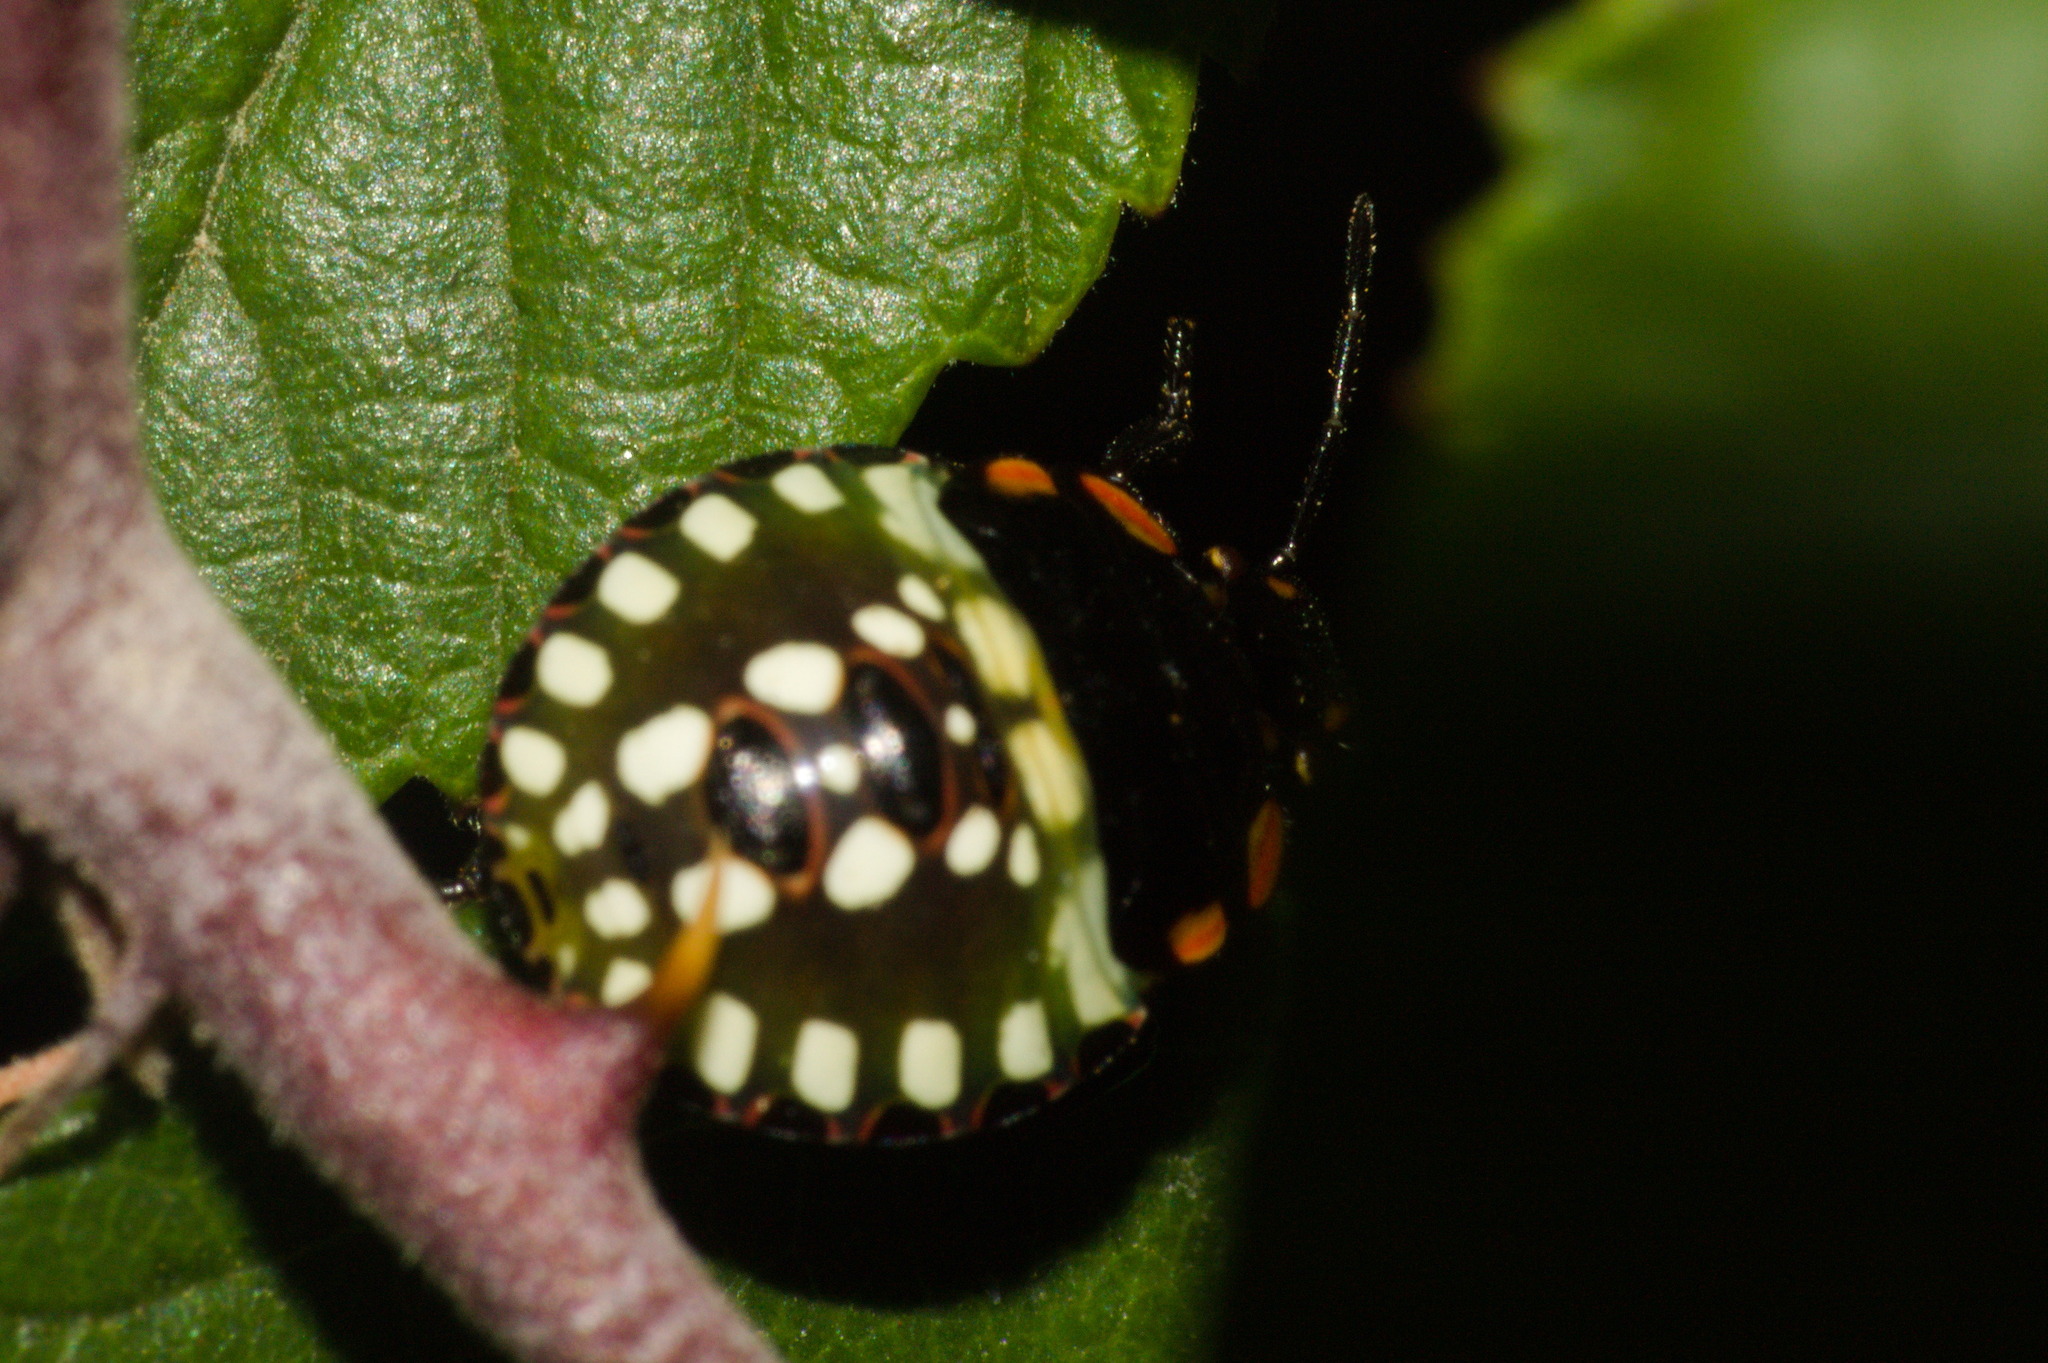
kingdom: Animalia
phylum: Arthropoda
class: Insecta
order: Hemiptera
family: Pentatomidae
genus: Nezara
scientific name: Nezara viridula
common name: Southern green stink bug
